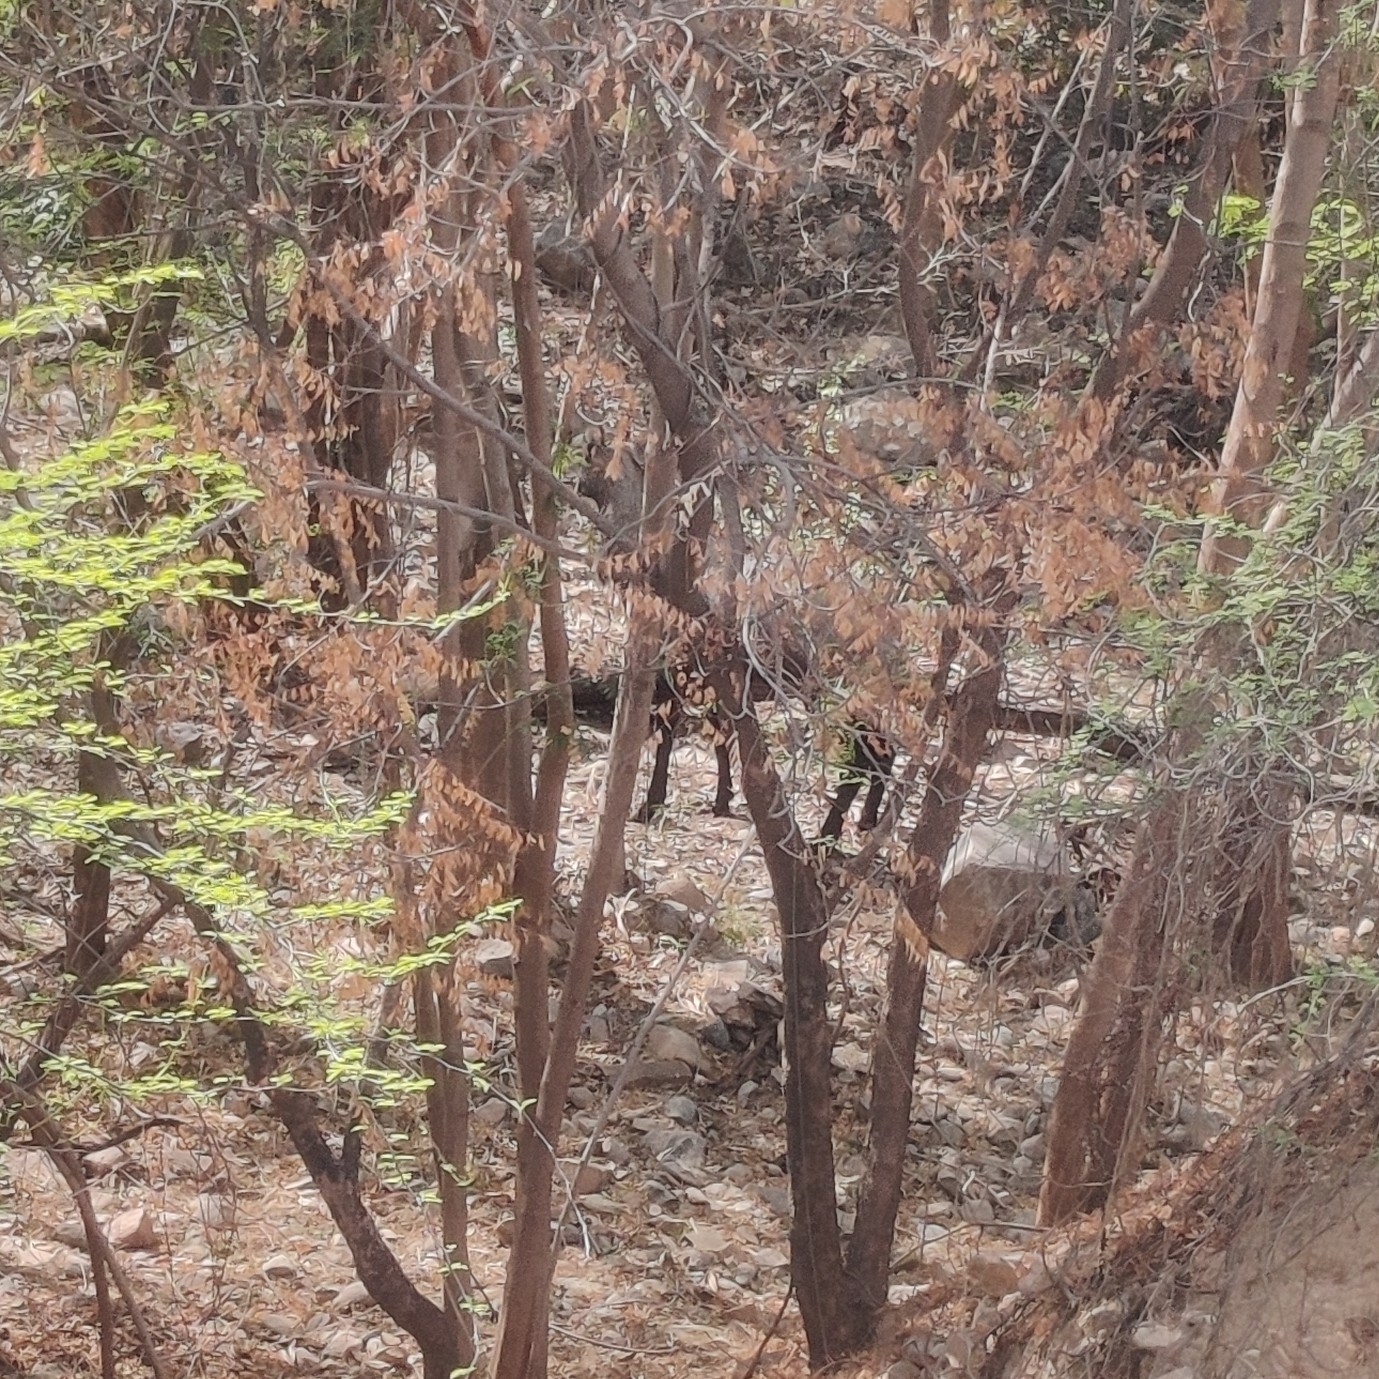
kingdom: Animalia
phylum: Chordata
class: Mammalia
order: Artiodactyla
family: Bovidae
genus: Boselaphus
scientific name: Boselaphus tragocamelus
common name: Nilgai
